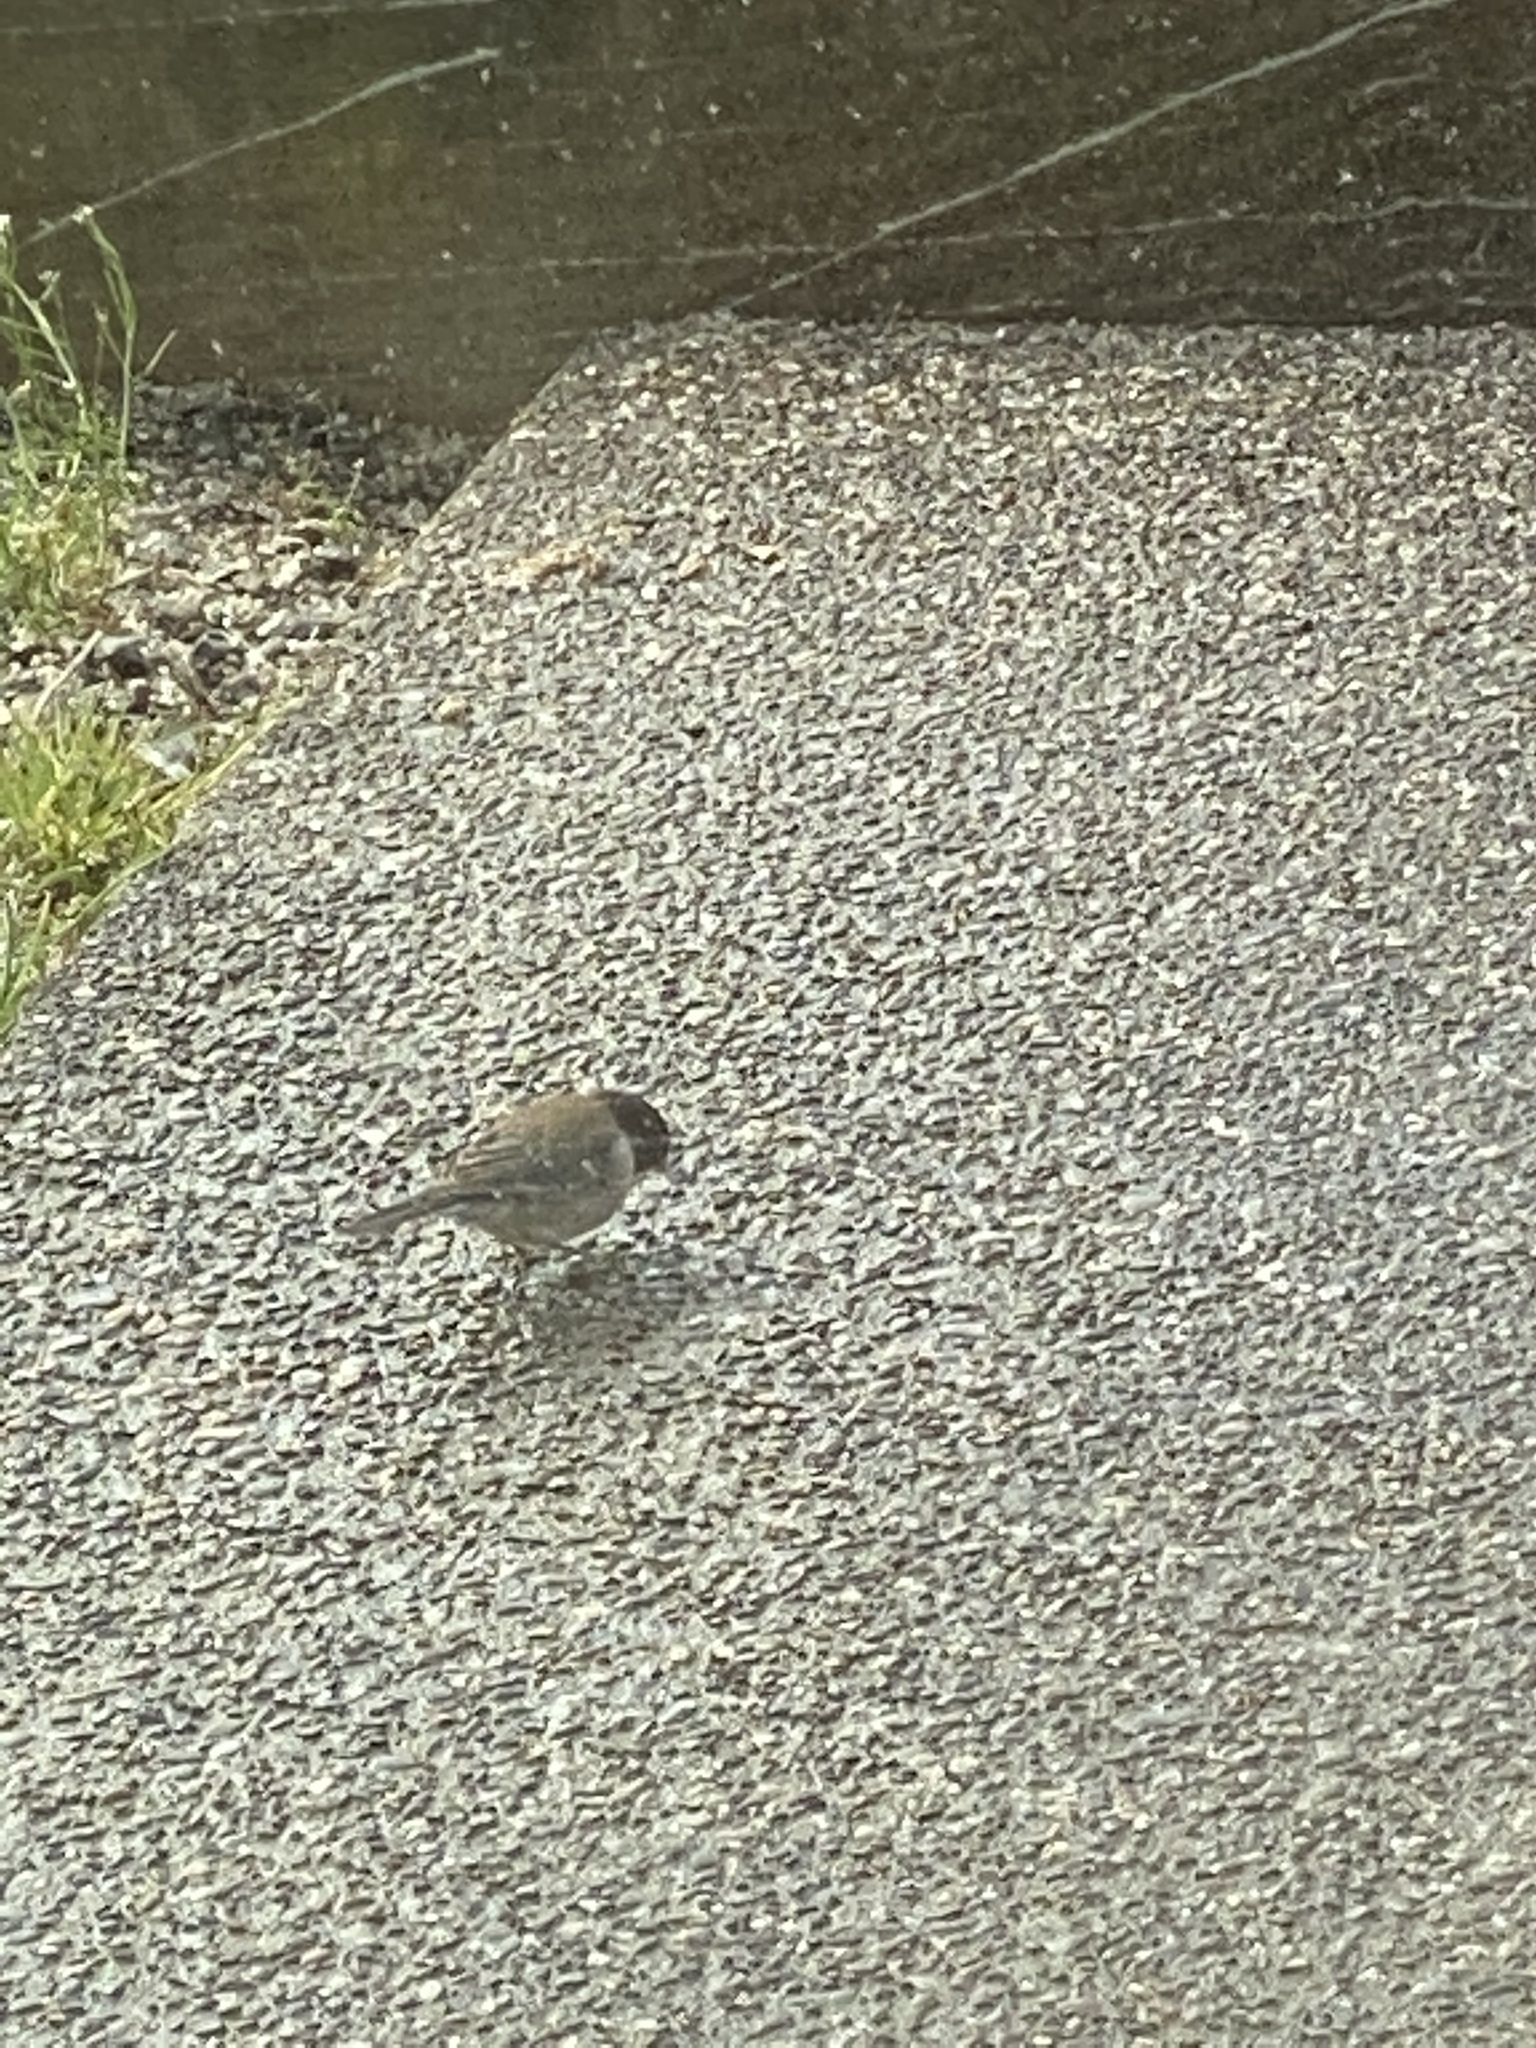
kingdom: Animalia
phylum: Chordata
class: Aves
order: Passeriformes
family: Passerellidae
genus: Junco
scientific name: Junco hyemalis
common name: Dark-eyed junco
